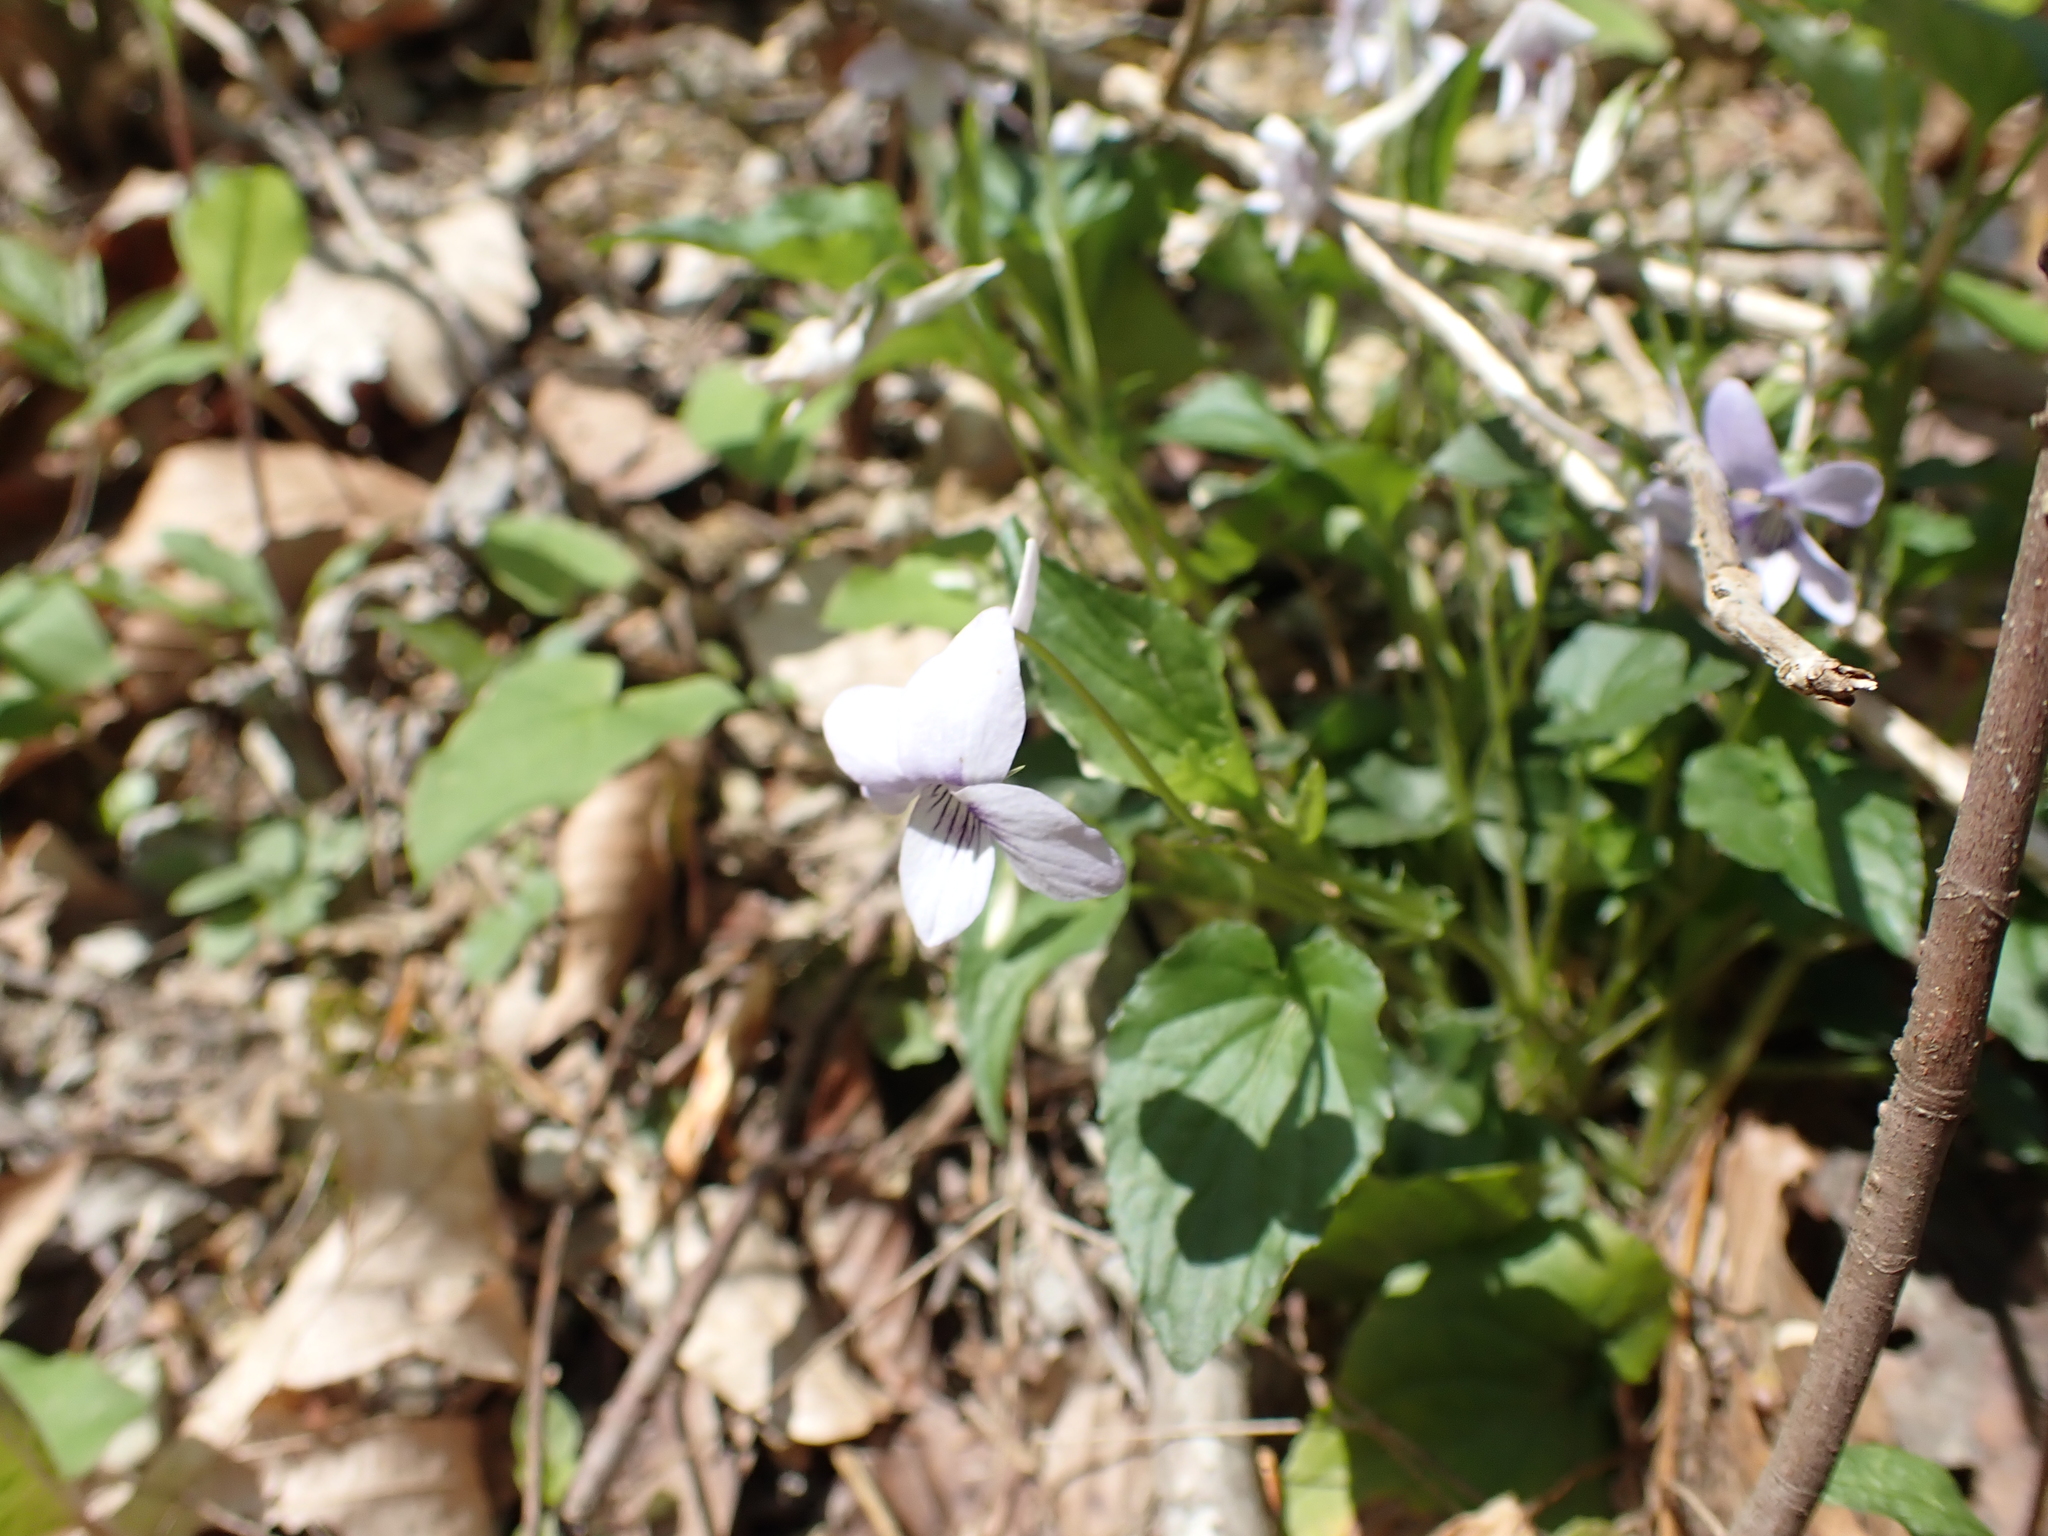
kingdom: Plantae
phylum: Tracheophyta
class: Magnoliopsida
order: Malpighiales
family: Violaceae
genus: Viola
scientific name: Viola rostrata
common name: Long-spur violet
